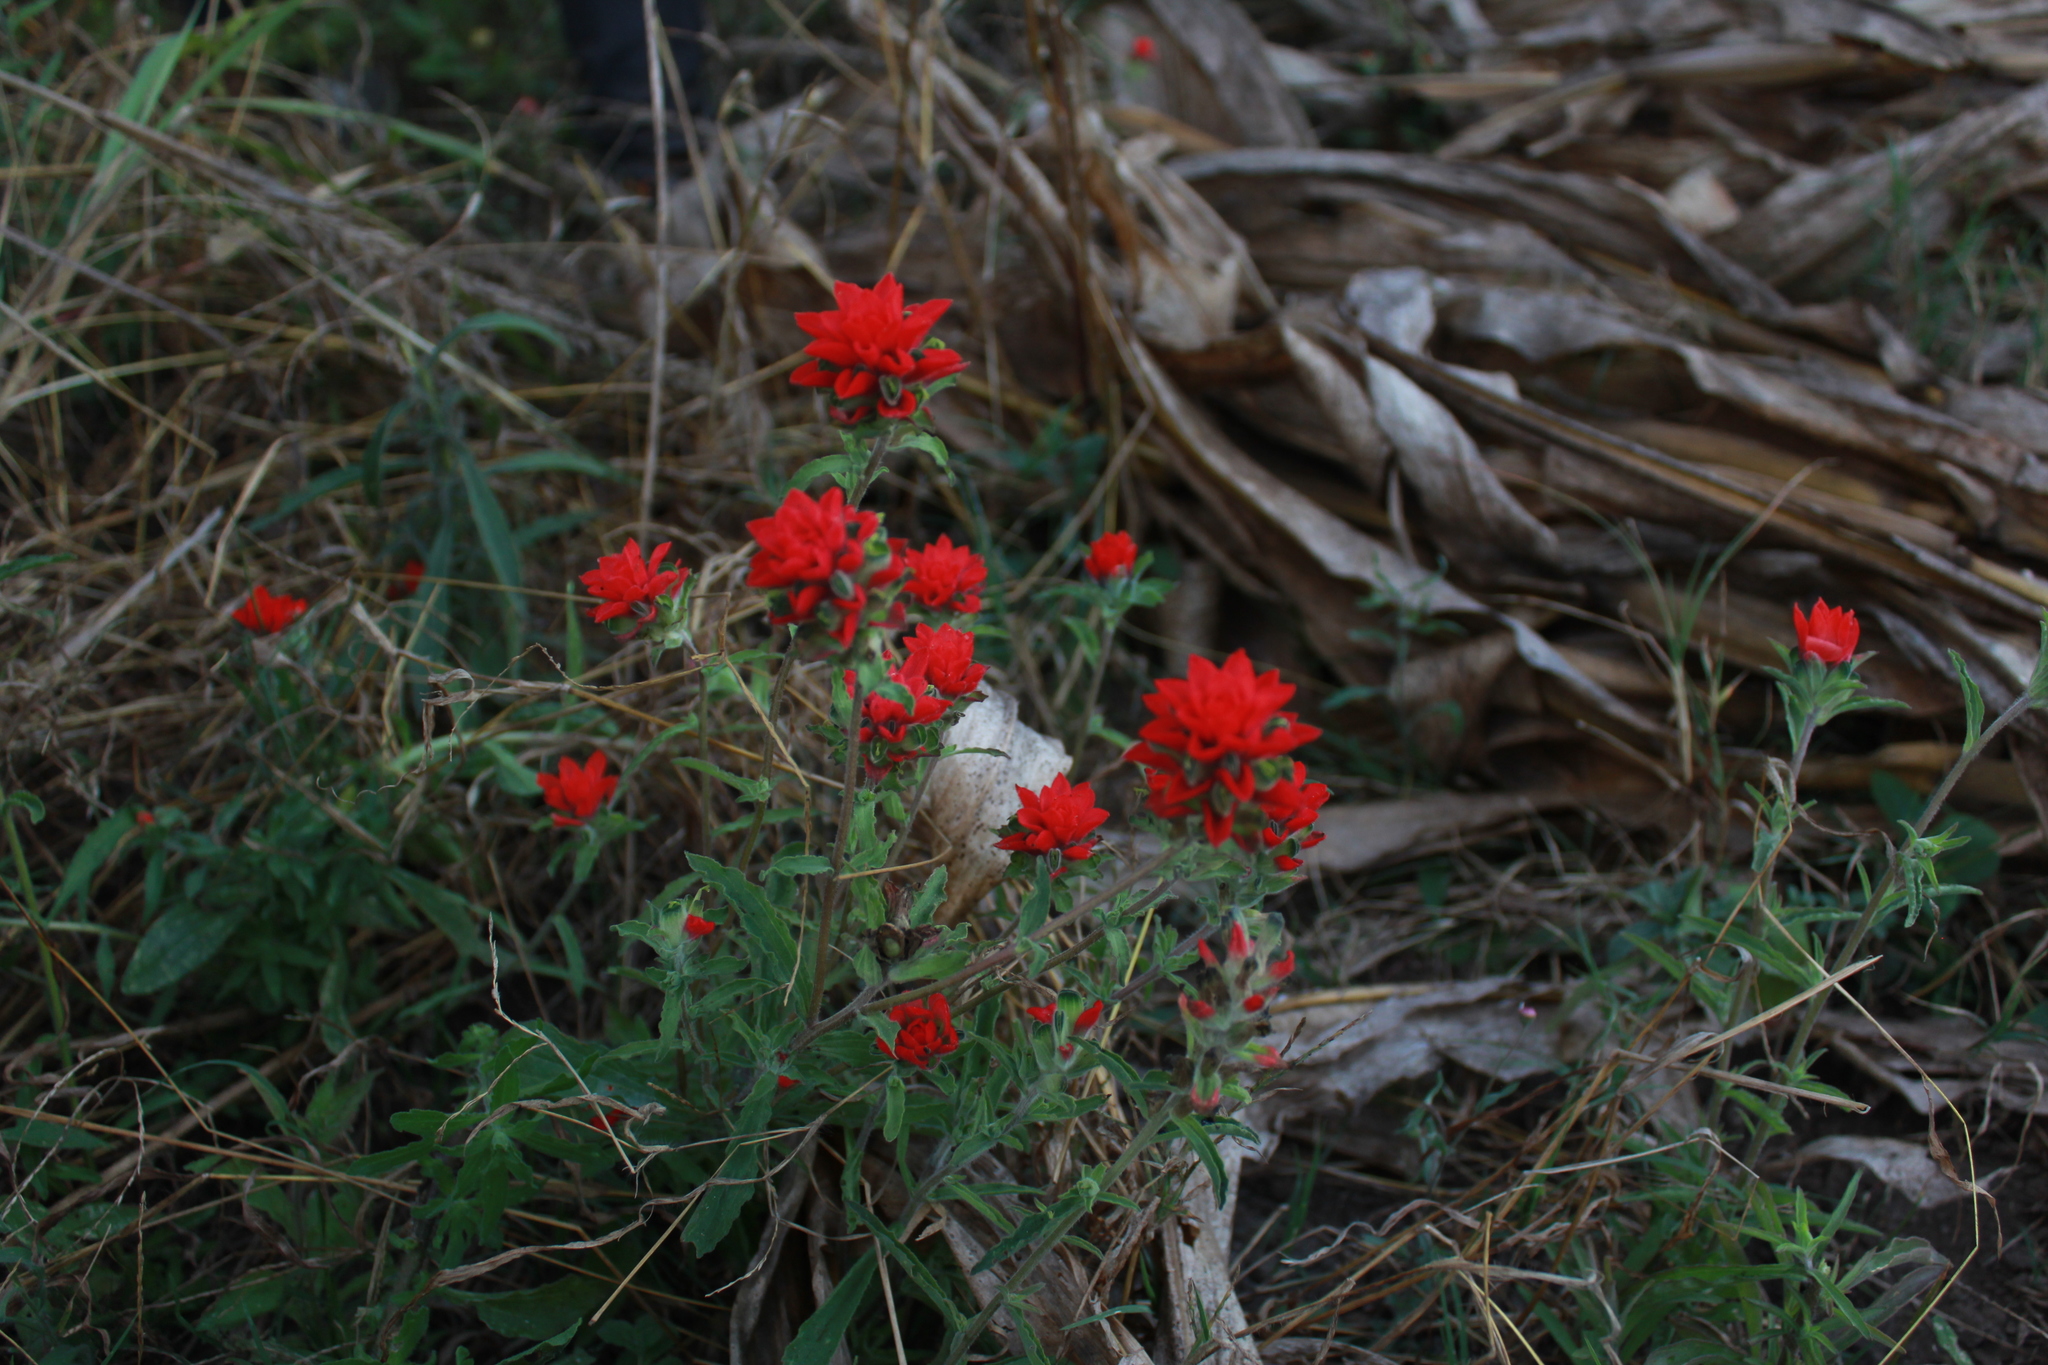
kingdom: Plantae
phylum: Tracheophyta
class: Magnoliopsida
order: Lamiales
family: Orobanchaceae
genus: Castilleja
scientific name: Castilleja arvensis
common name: Indian paintbrush
